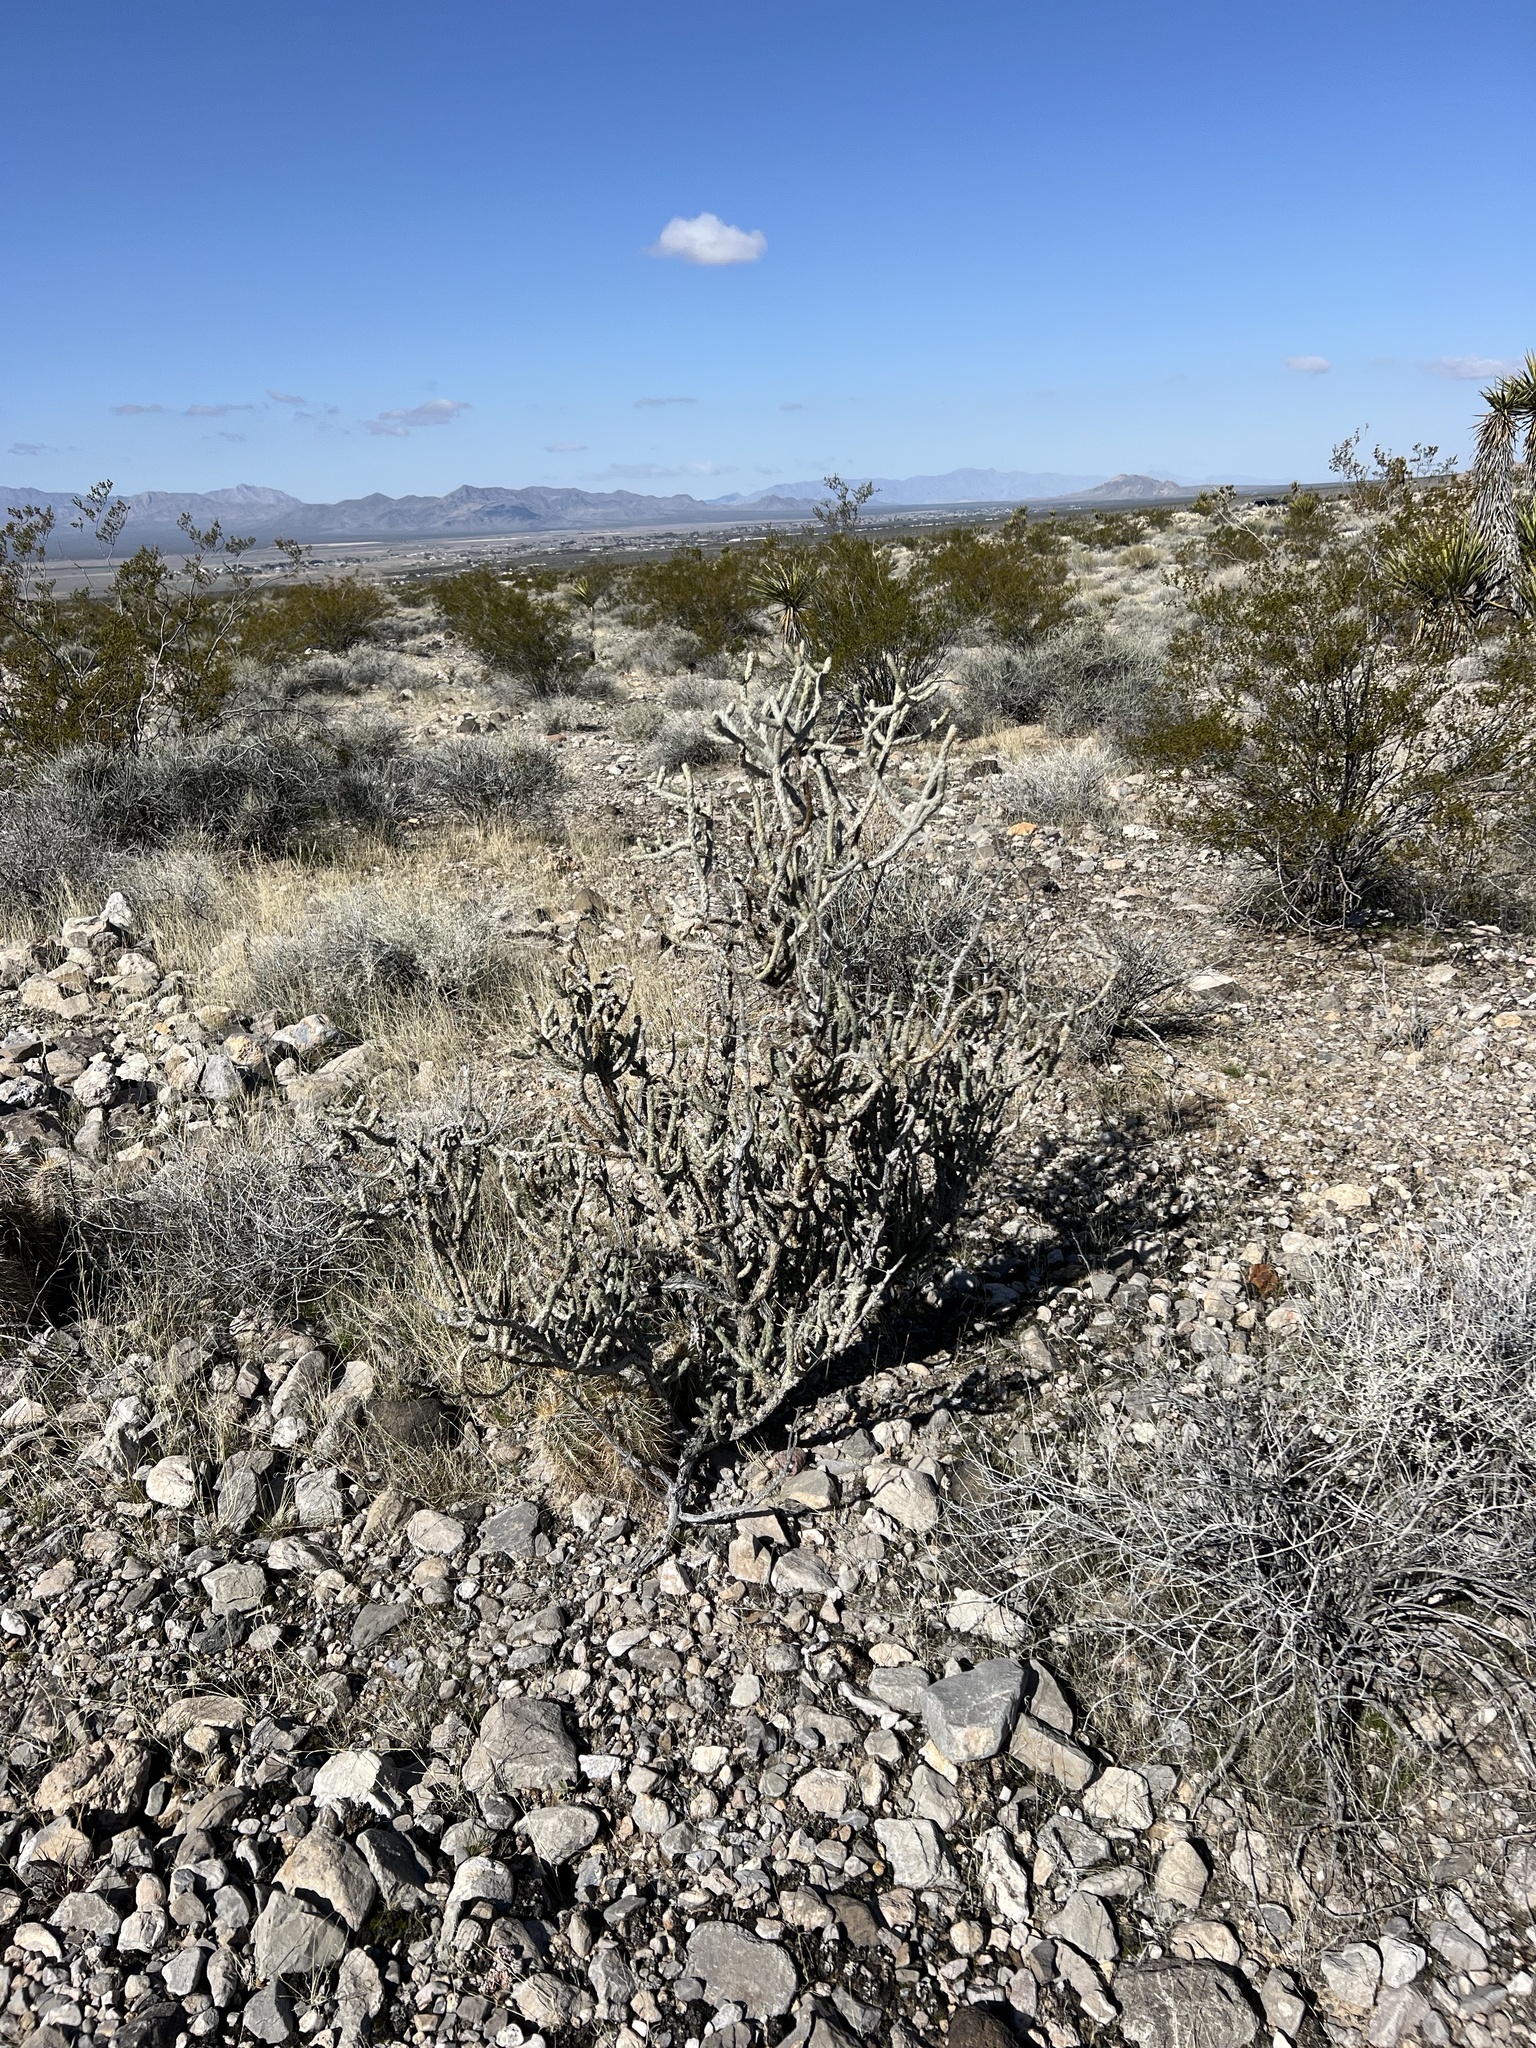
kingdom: Plantae
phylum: Tracheophyta
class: Magnoliopsida
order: Caryophyllales
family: Cactaceae
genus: Cylindropuntia
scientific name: Cylindropuntia ramosissima
